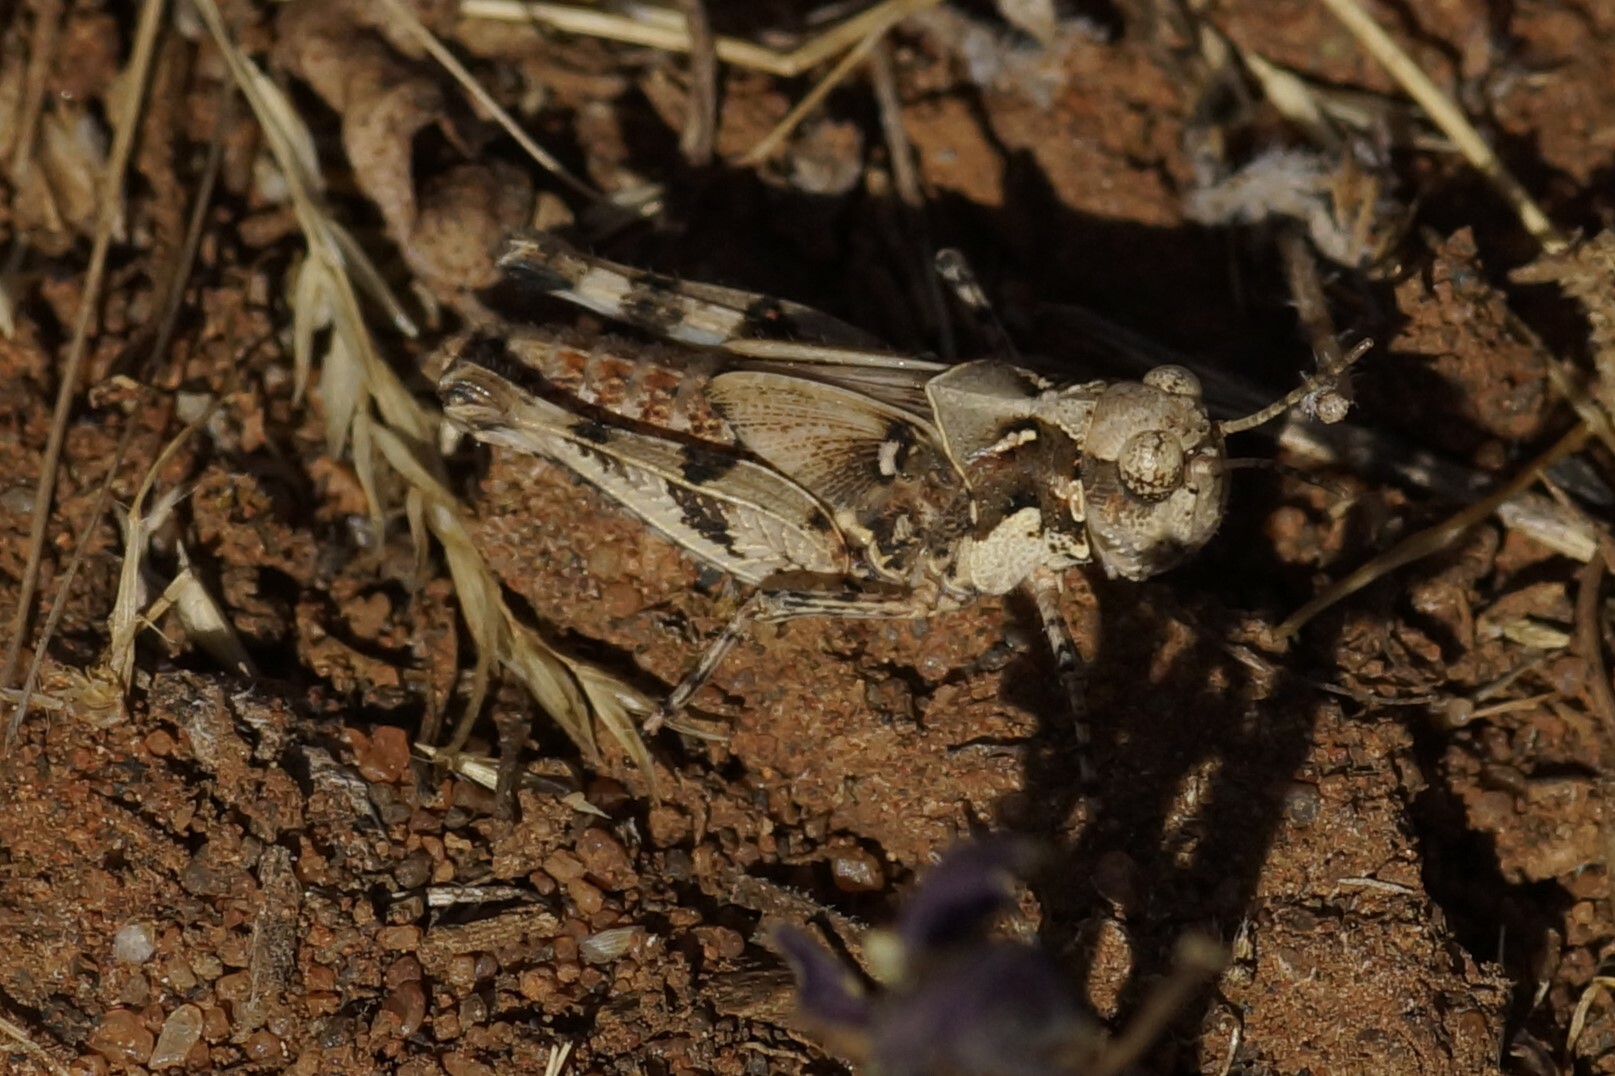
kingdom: Animalia
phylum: Arthropoda
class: Insecta
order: Orthoptera
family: Acrididae
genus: Pycnostictus
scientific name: Pycnostictus seriatus
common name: Common bandwing
